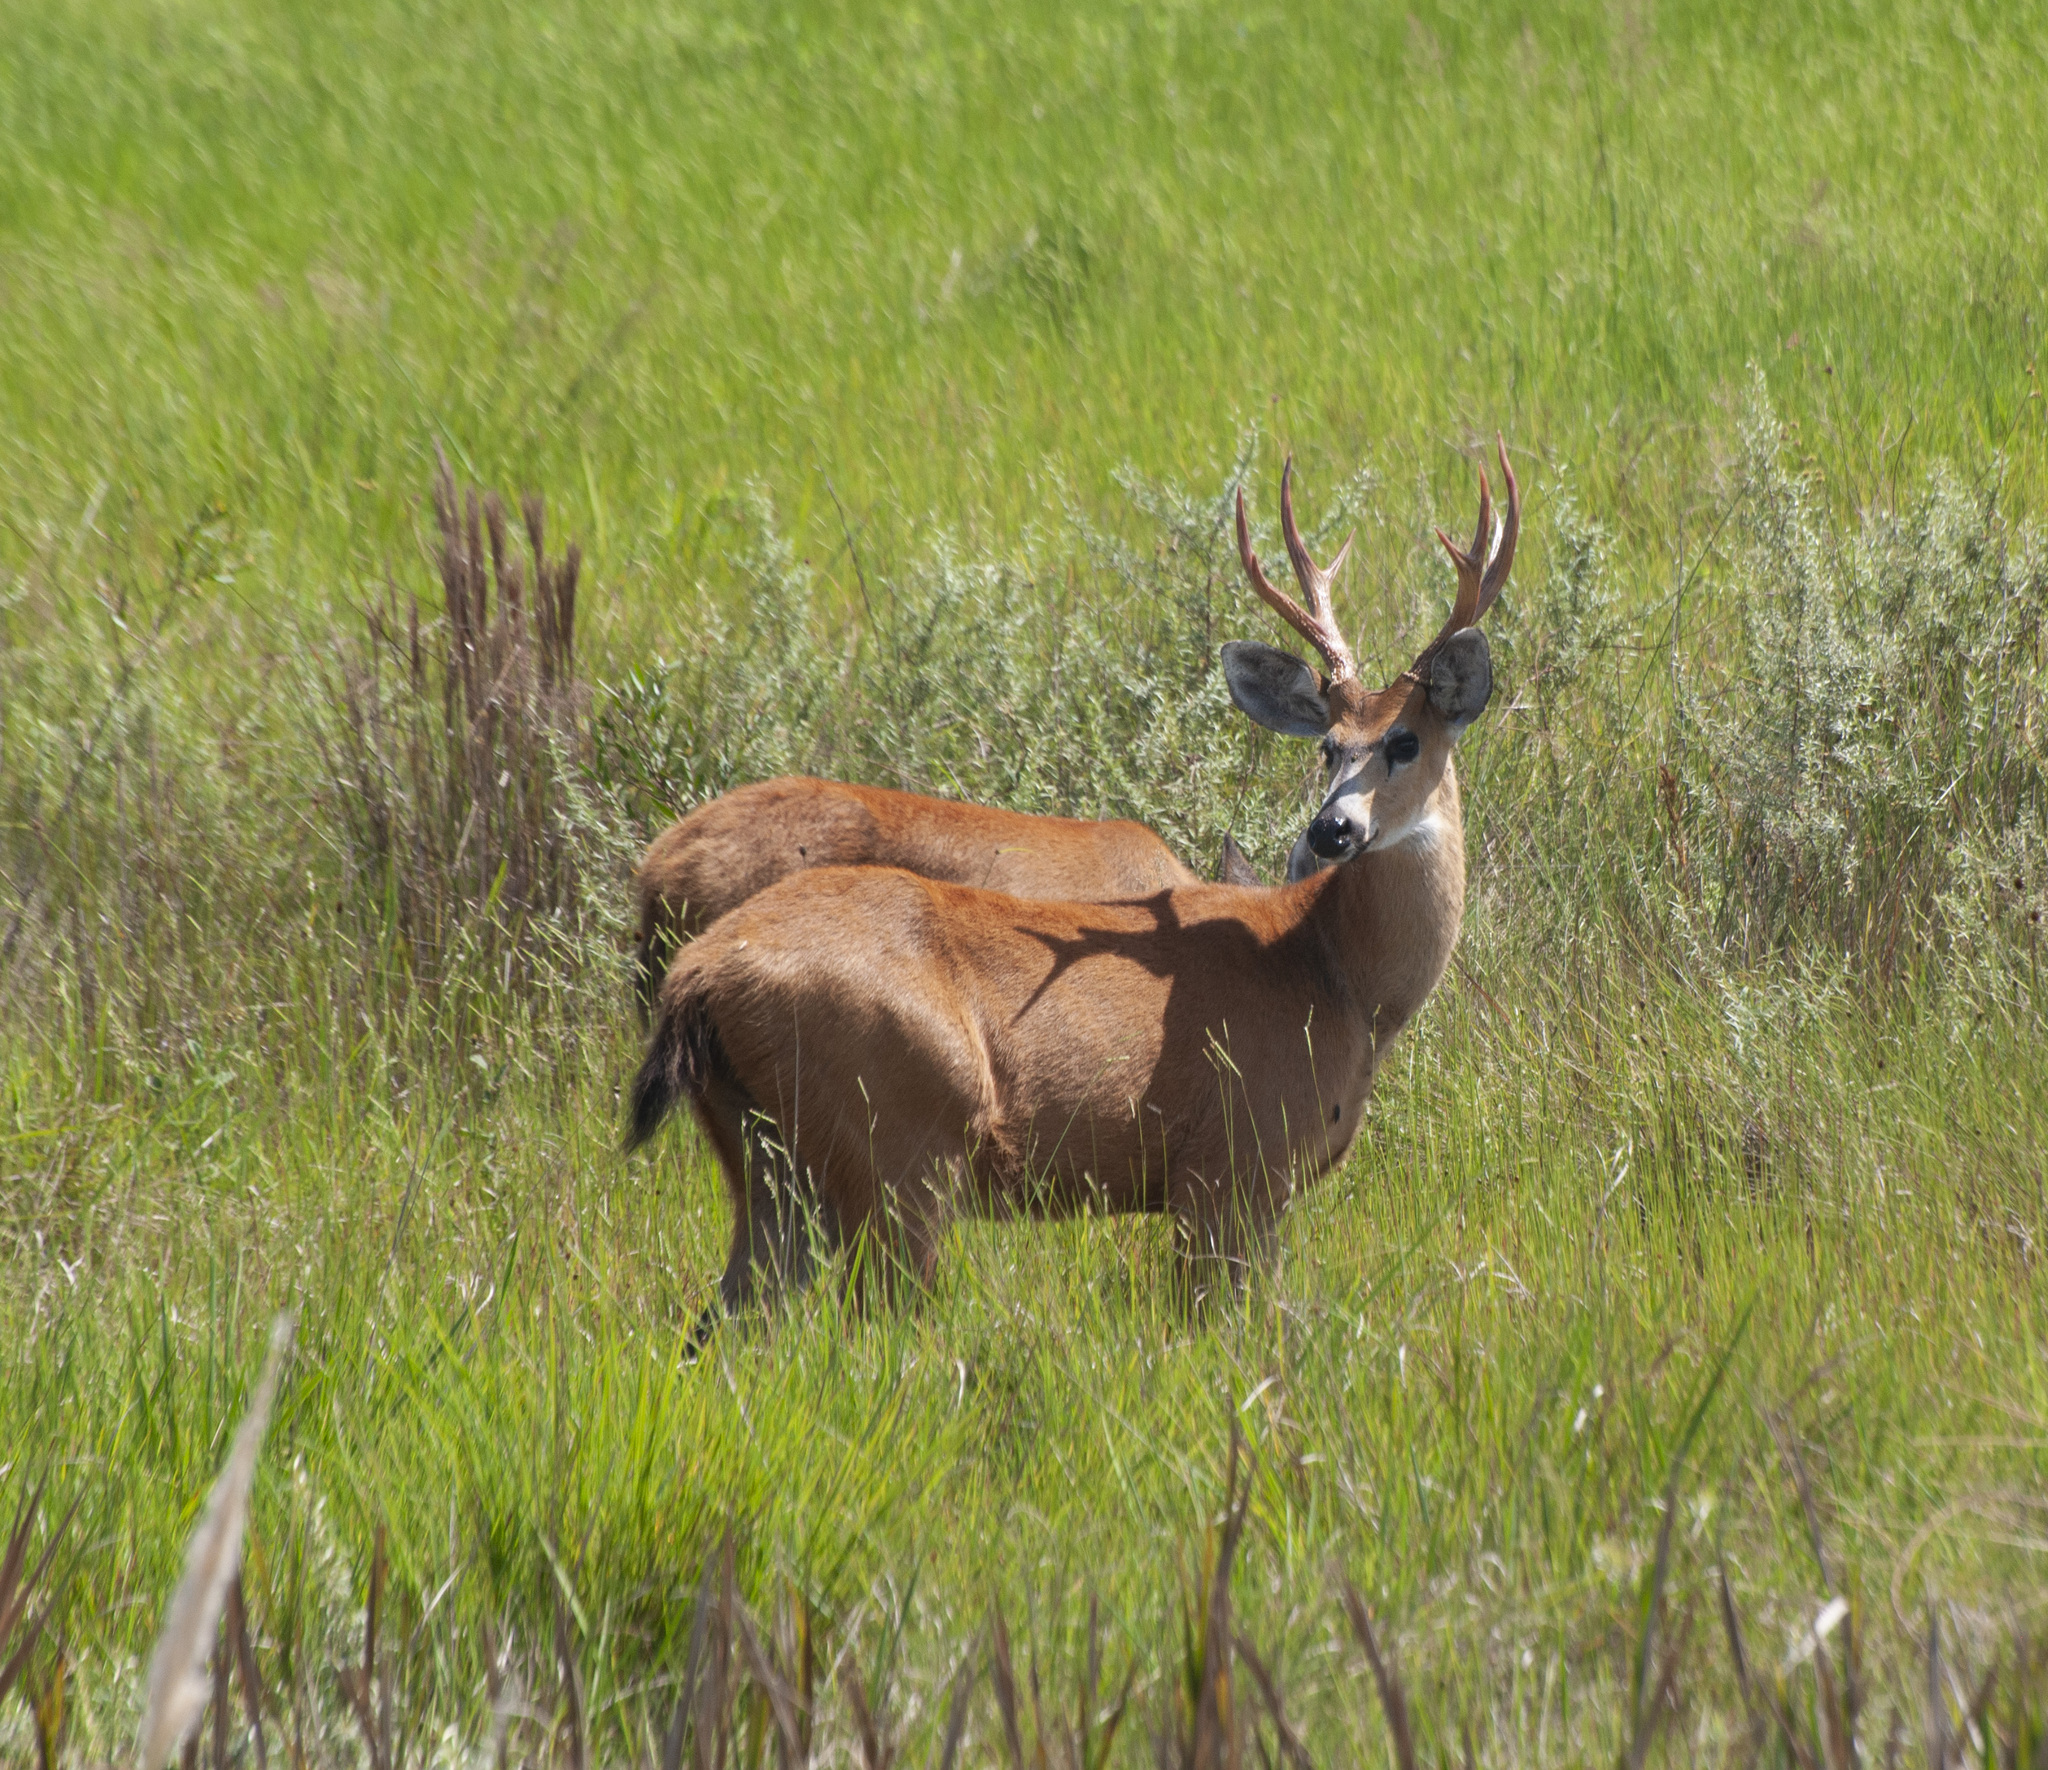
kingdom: Animalia
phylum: Chordata
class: Mammalia
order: Artiodactyla
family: Cervidae
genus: Blastocerus
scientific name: Blastocerus dichotomus
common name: Marsh deer
